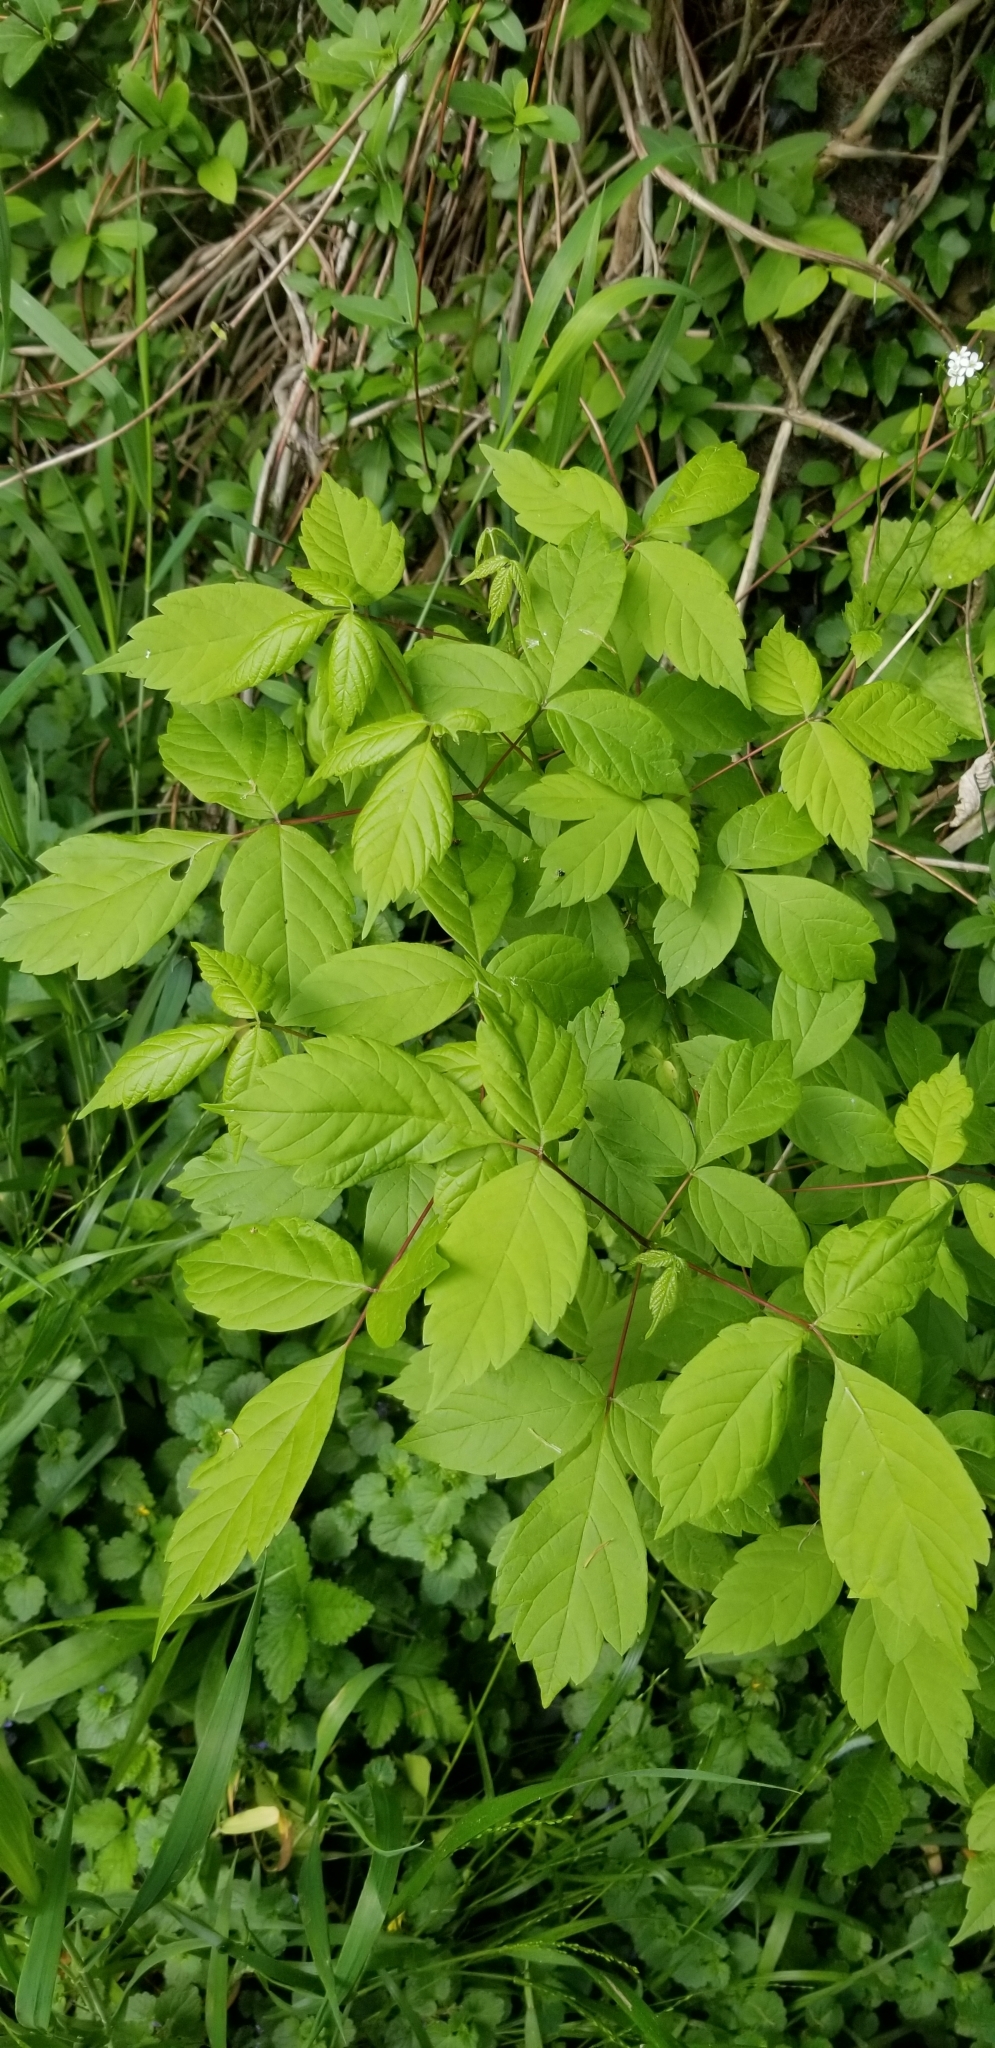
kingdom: Plantae
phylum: Tracheophyta
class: Magnoliopsida
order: Sapindales
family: Sapindaceae
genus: Acer
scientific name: Acer negundo
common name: Ashleaf maple
